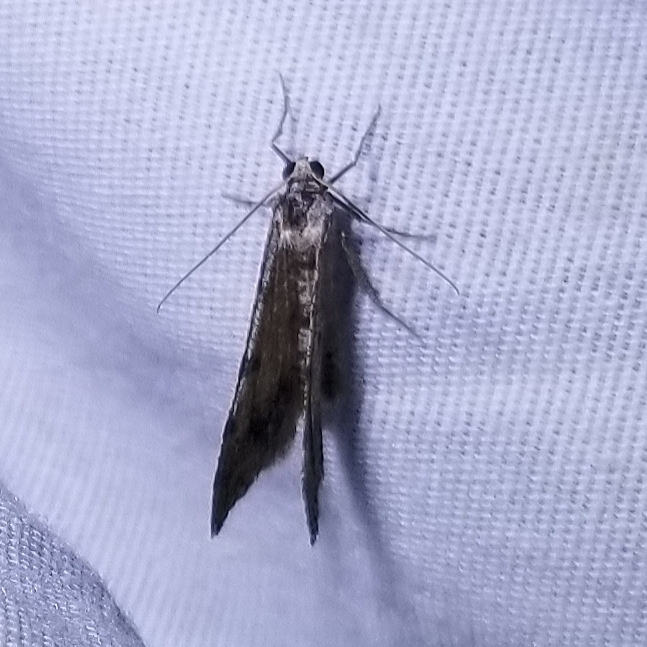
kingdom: Animalia
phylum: Arthropoda
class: Insecta
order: Lepidoptera
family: Geometridae
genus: Digrammia
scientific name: Digrammia colorata
